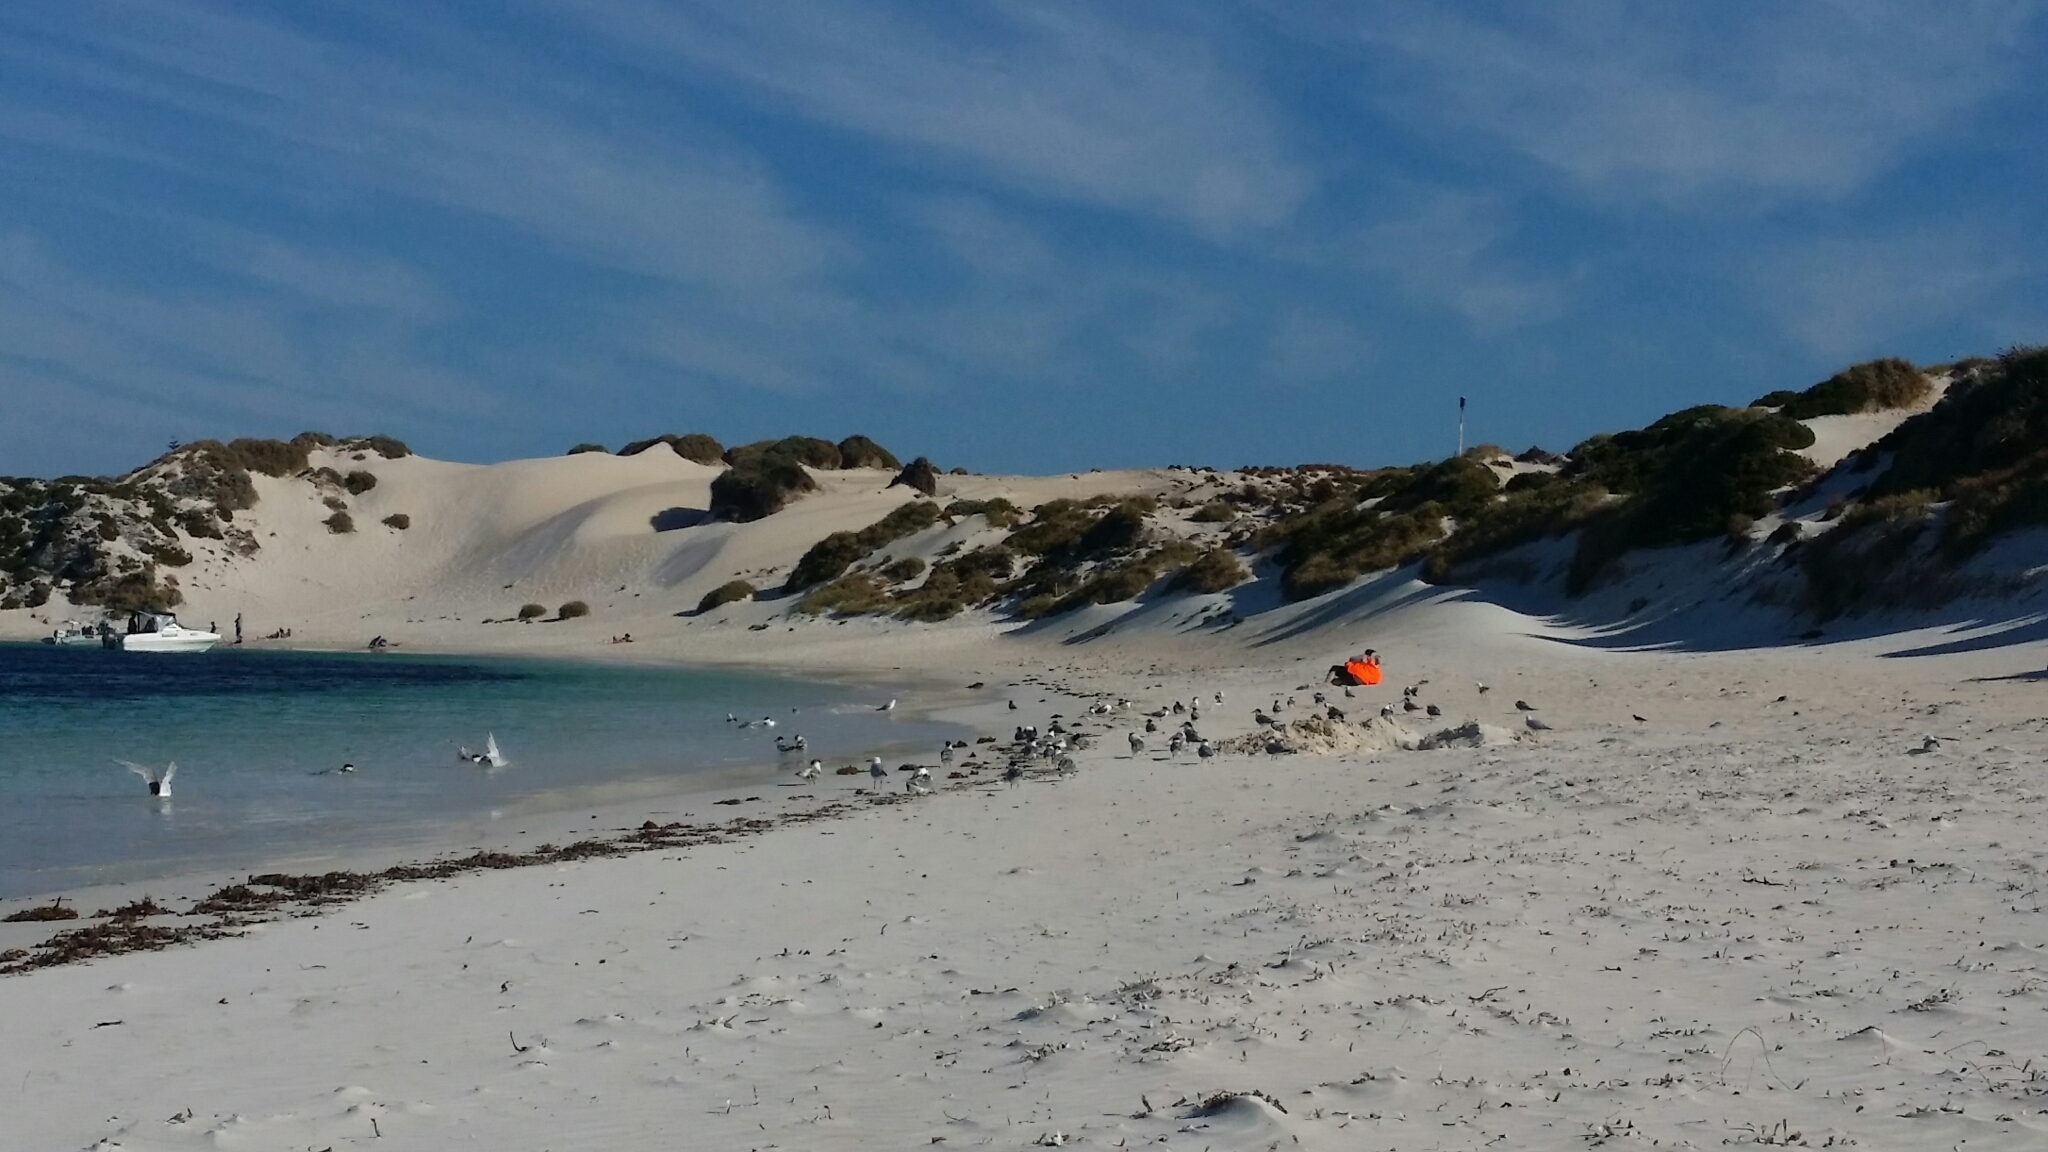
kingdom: Animalia
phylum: Chordata
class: Aves
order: Charadriiformes
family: Laridae
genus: Thalasseus
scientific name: Thalasseus bergii
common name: Greater crested tern
